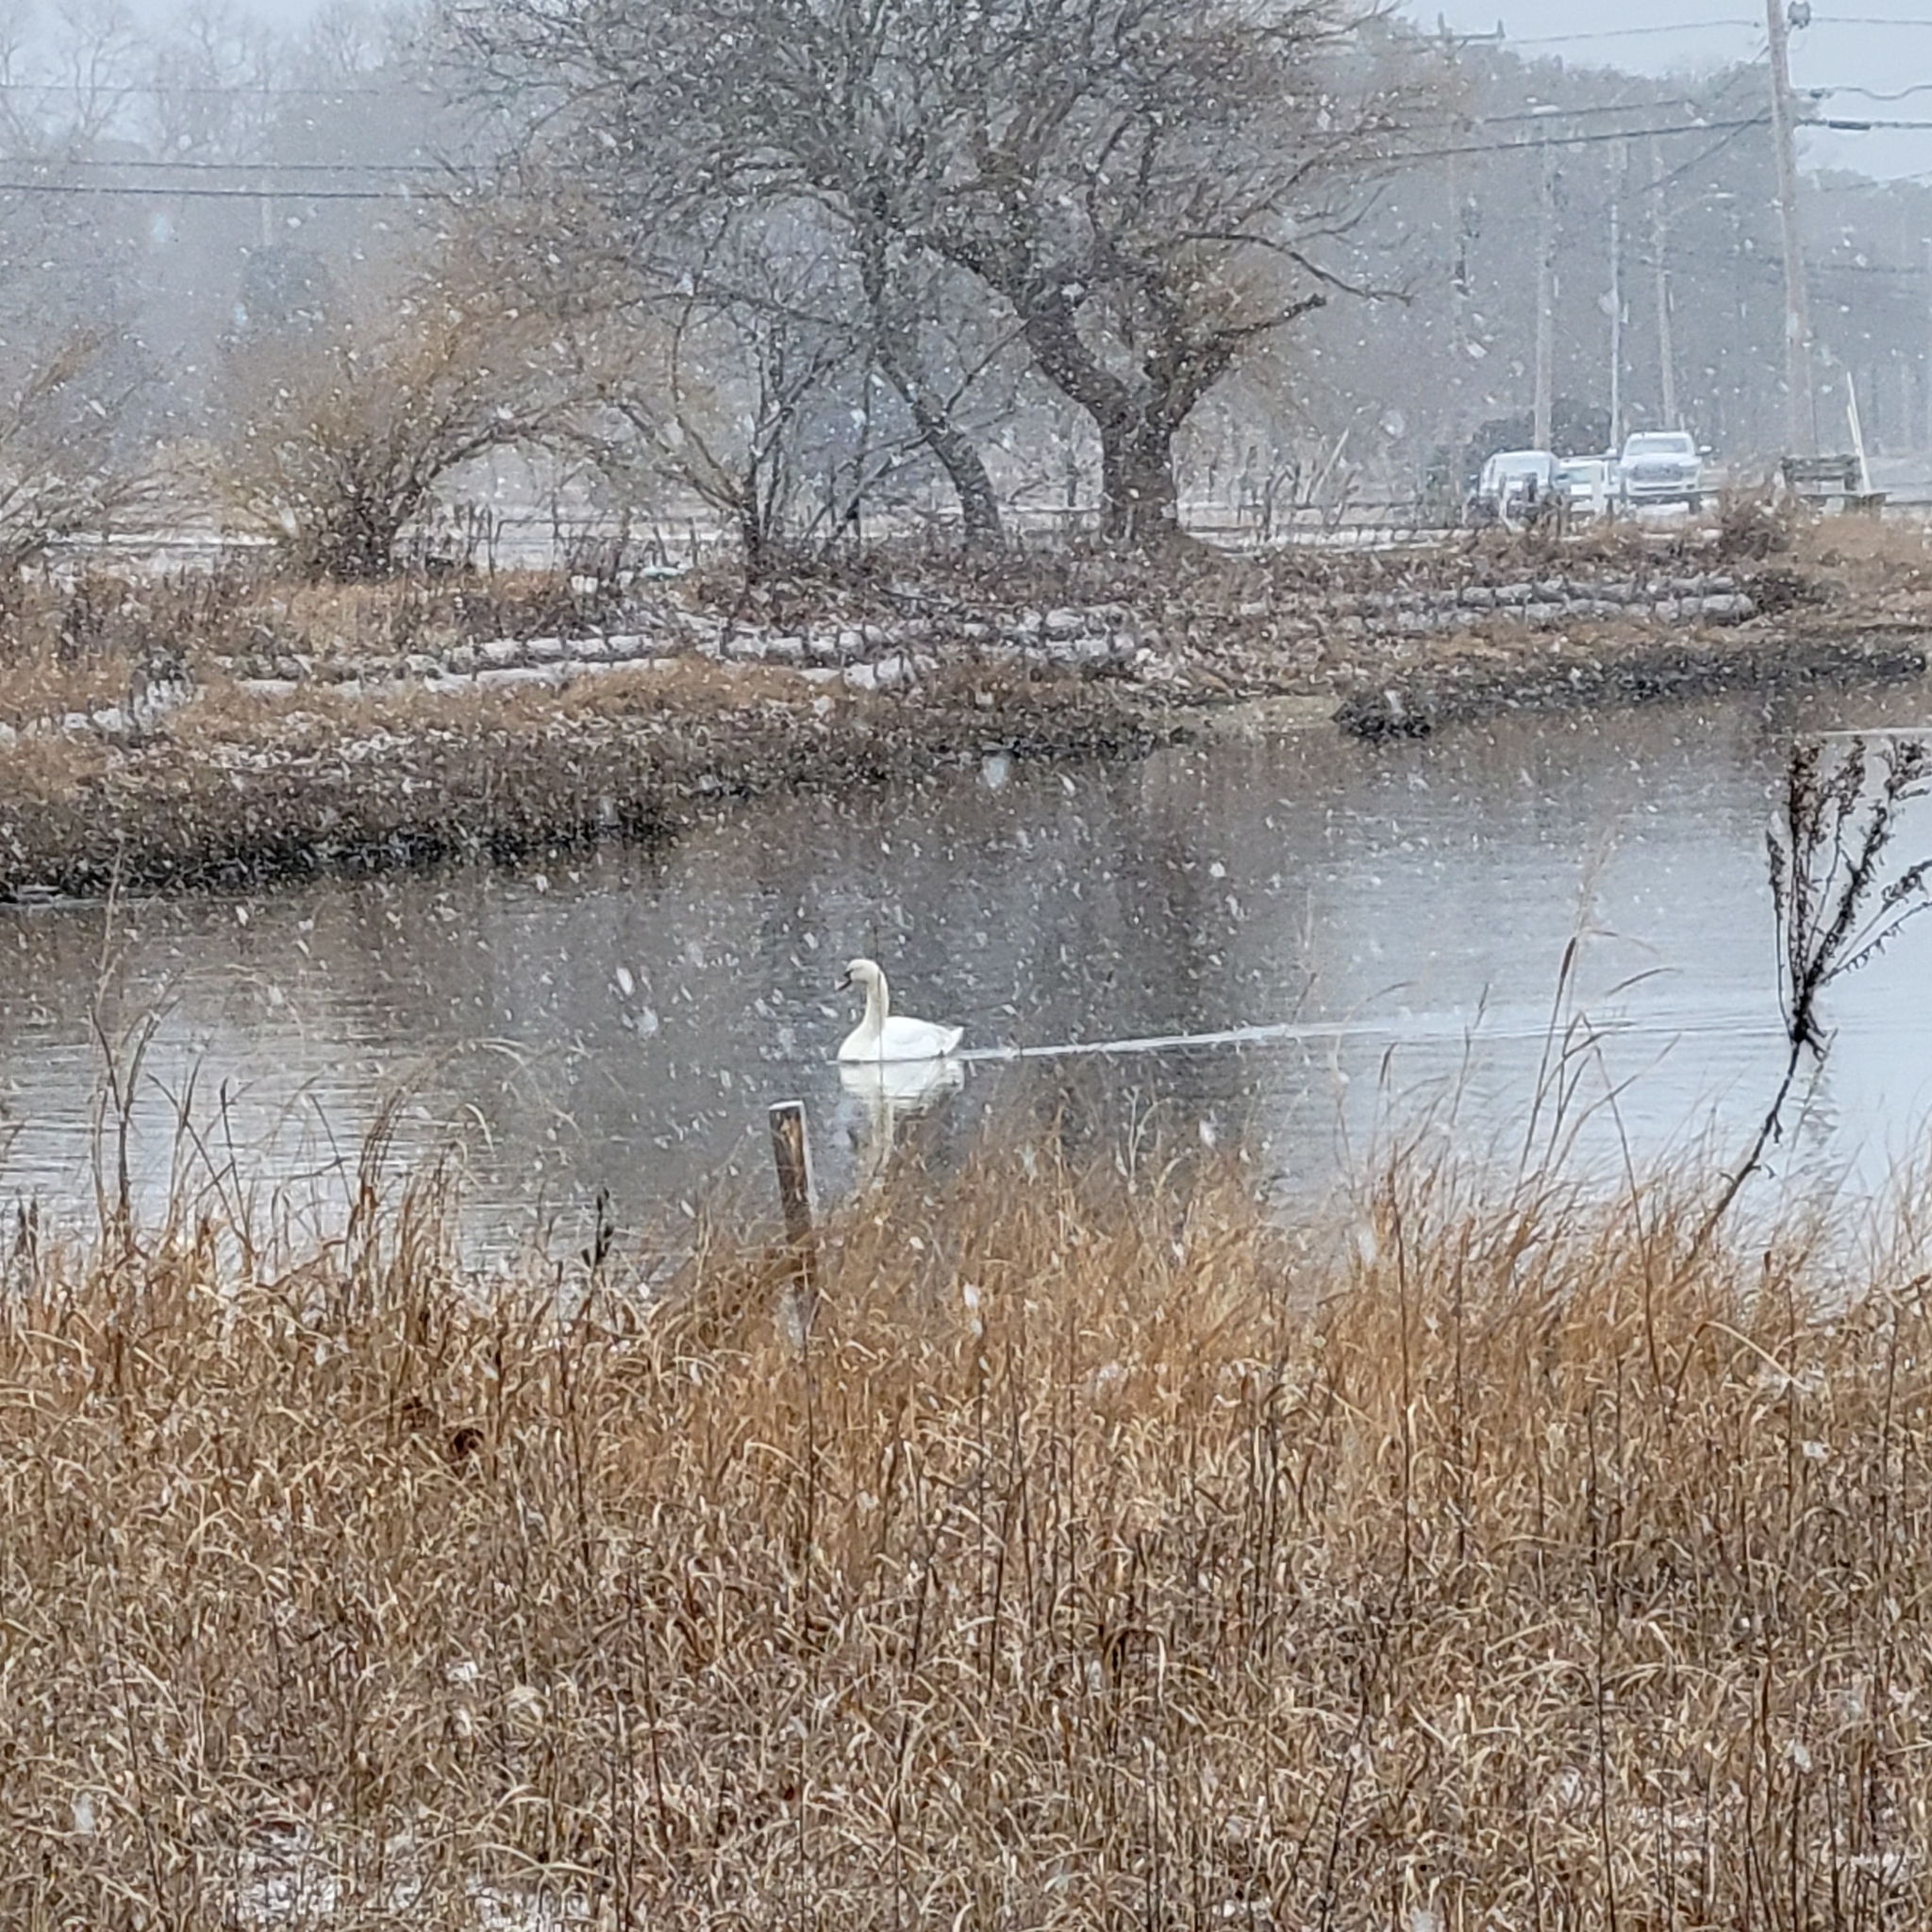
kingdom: Animalia
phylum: Chordata
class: Aves
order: Anseriformes
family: Anatidae
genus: Cygnus
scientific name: Cygnus olor
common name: Mute swan
